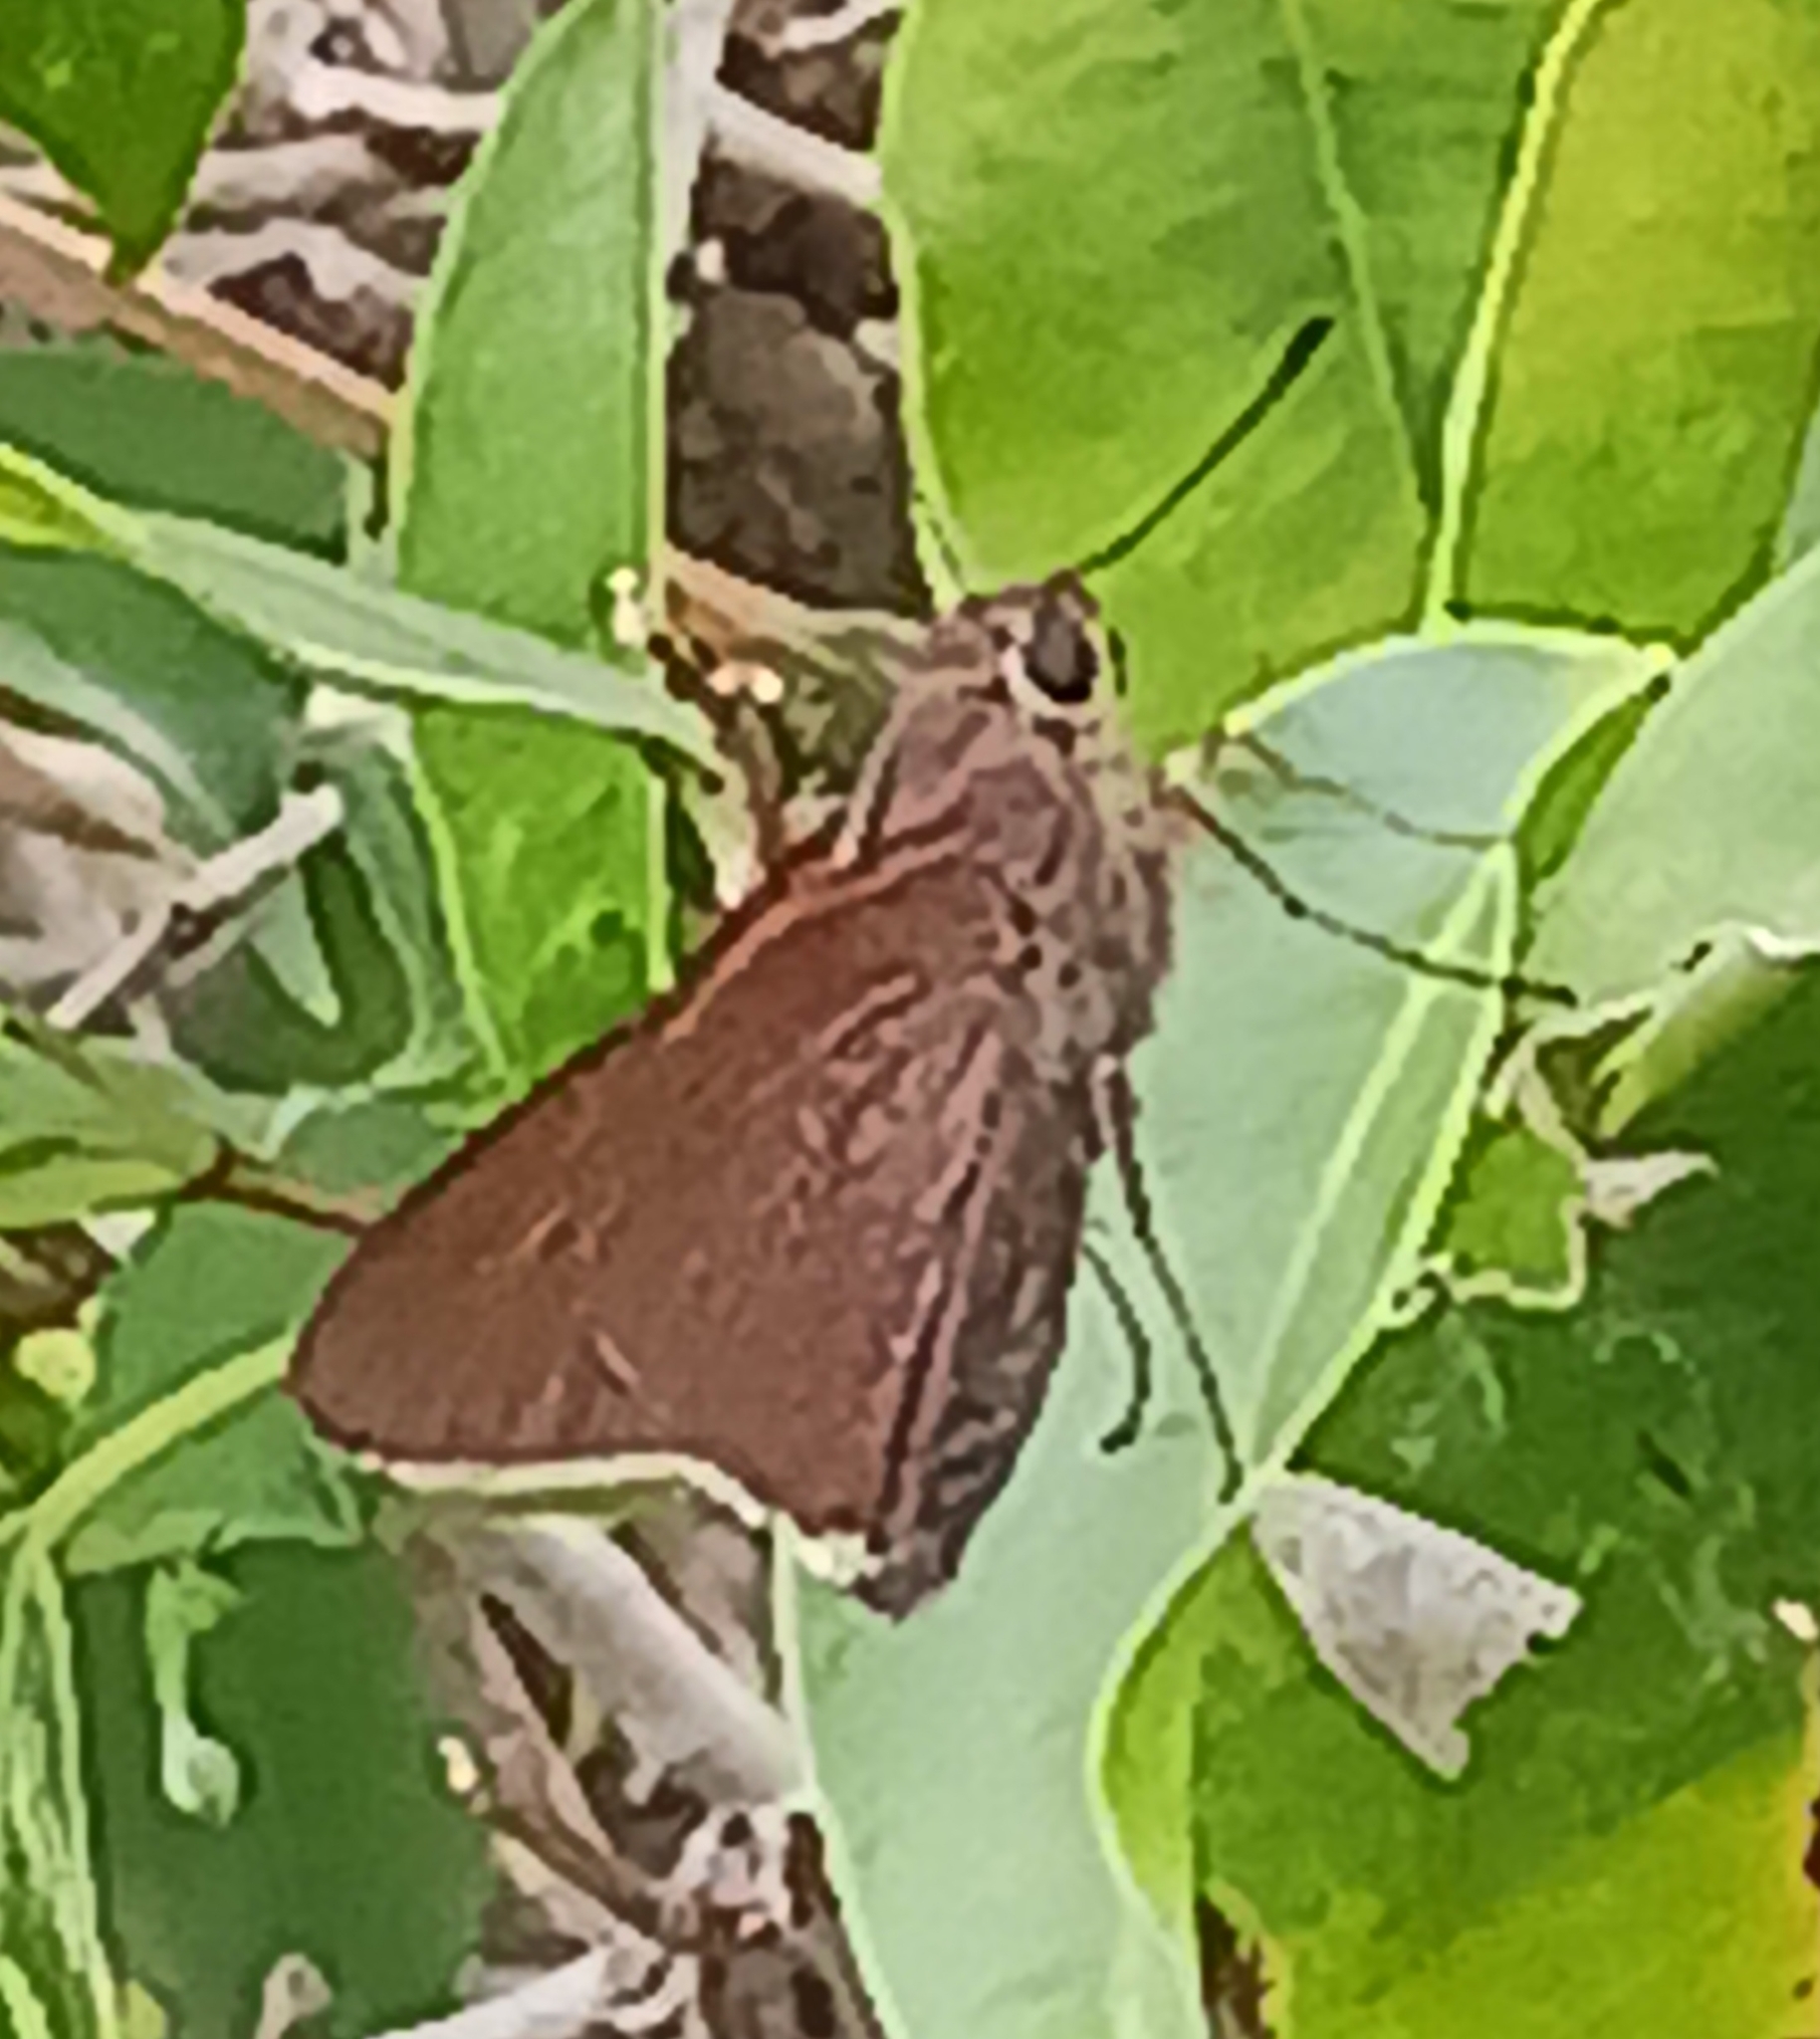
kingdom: Animalia
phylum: Arthropoda
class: Insecta
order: Lepidoptera
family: Hesperiidae
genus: Asbolis
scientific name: Asbolis capucinus
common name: Monk skipper
